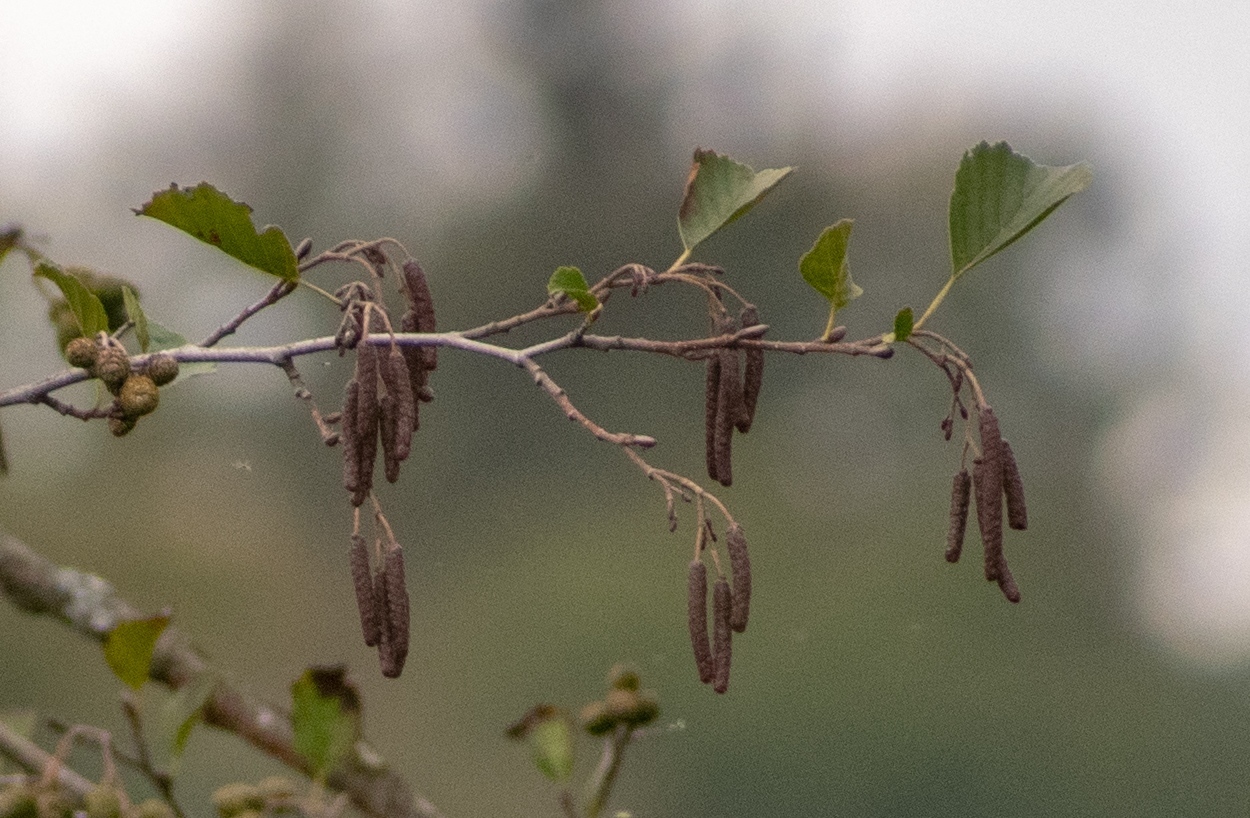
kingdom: Plantae
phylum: Tracheophyta
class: Magnoliopsida
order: Fagales
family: Betulaceae
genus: Alnus
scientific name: Alnus glutinosa
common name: Black alder
